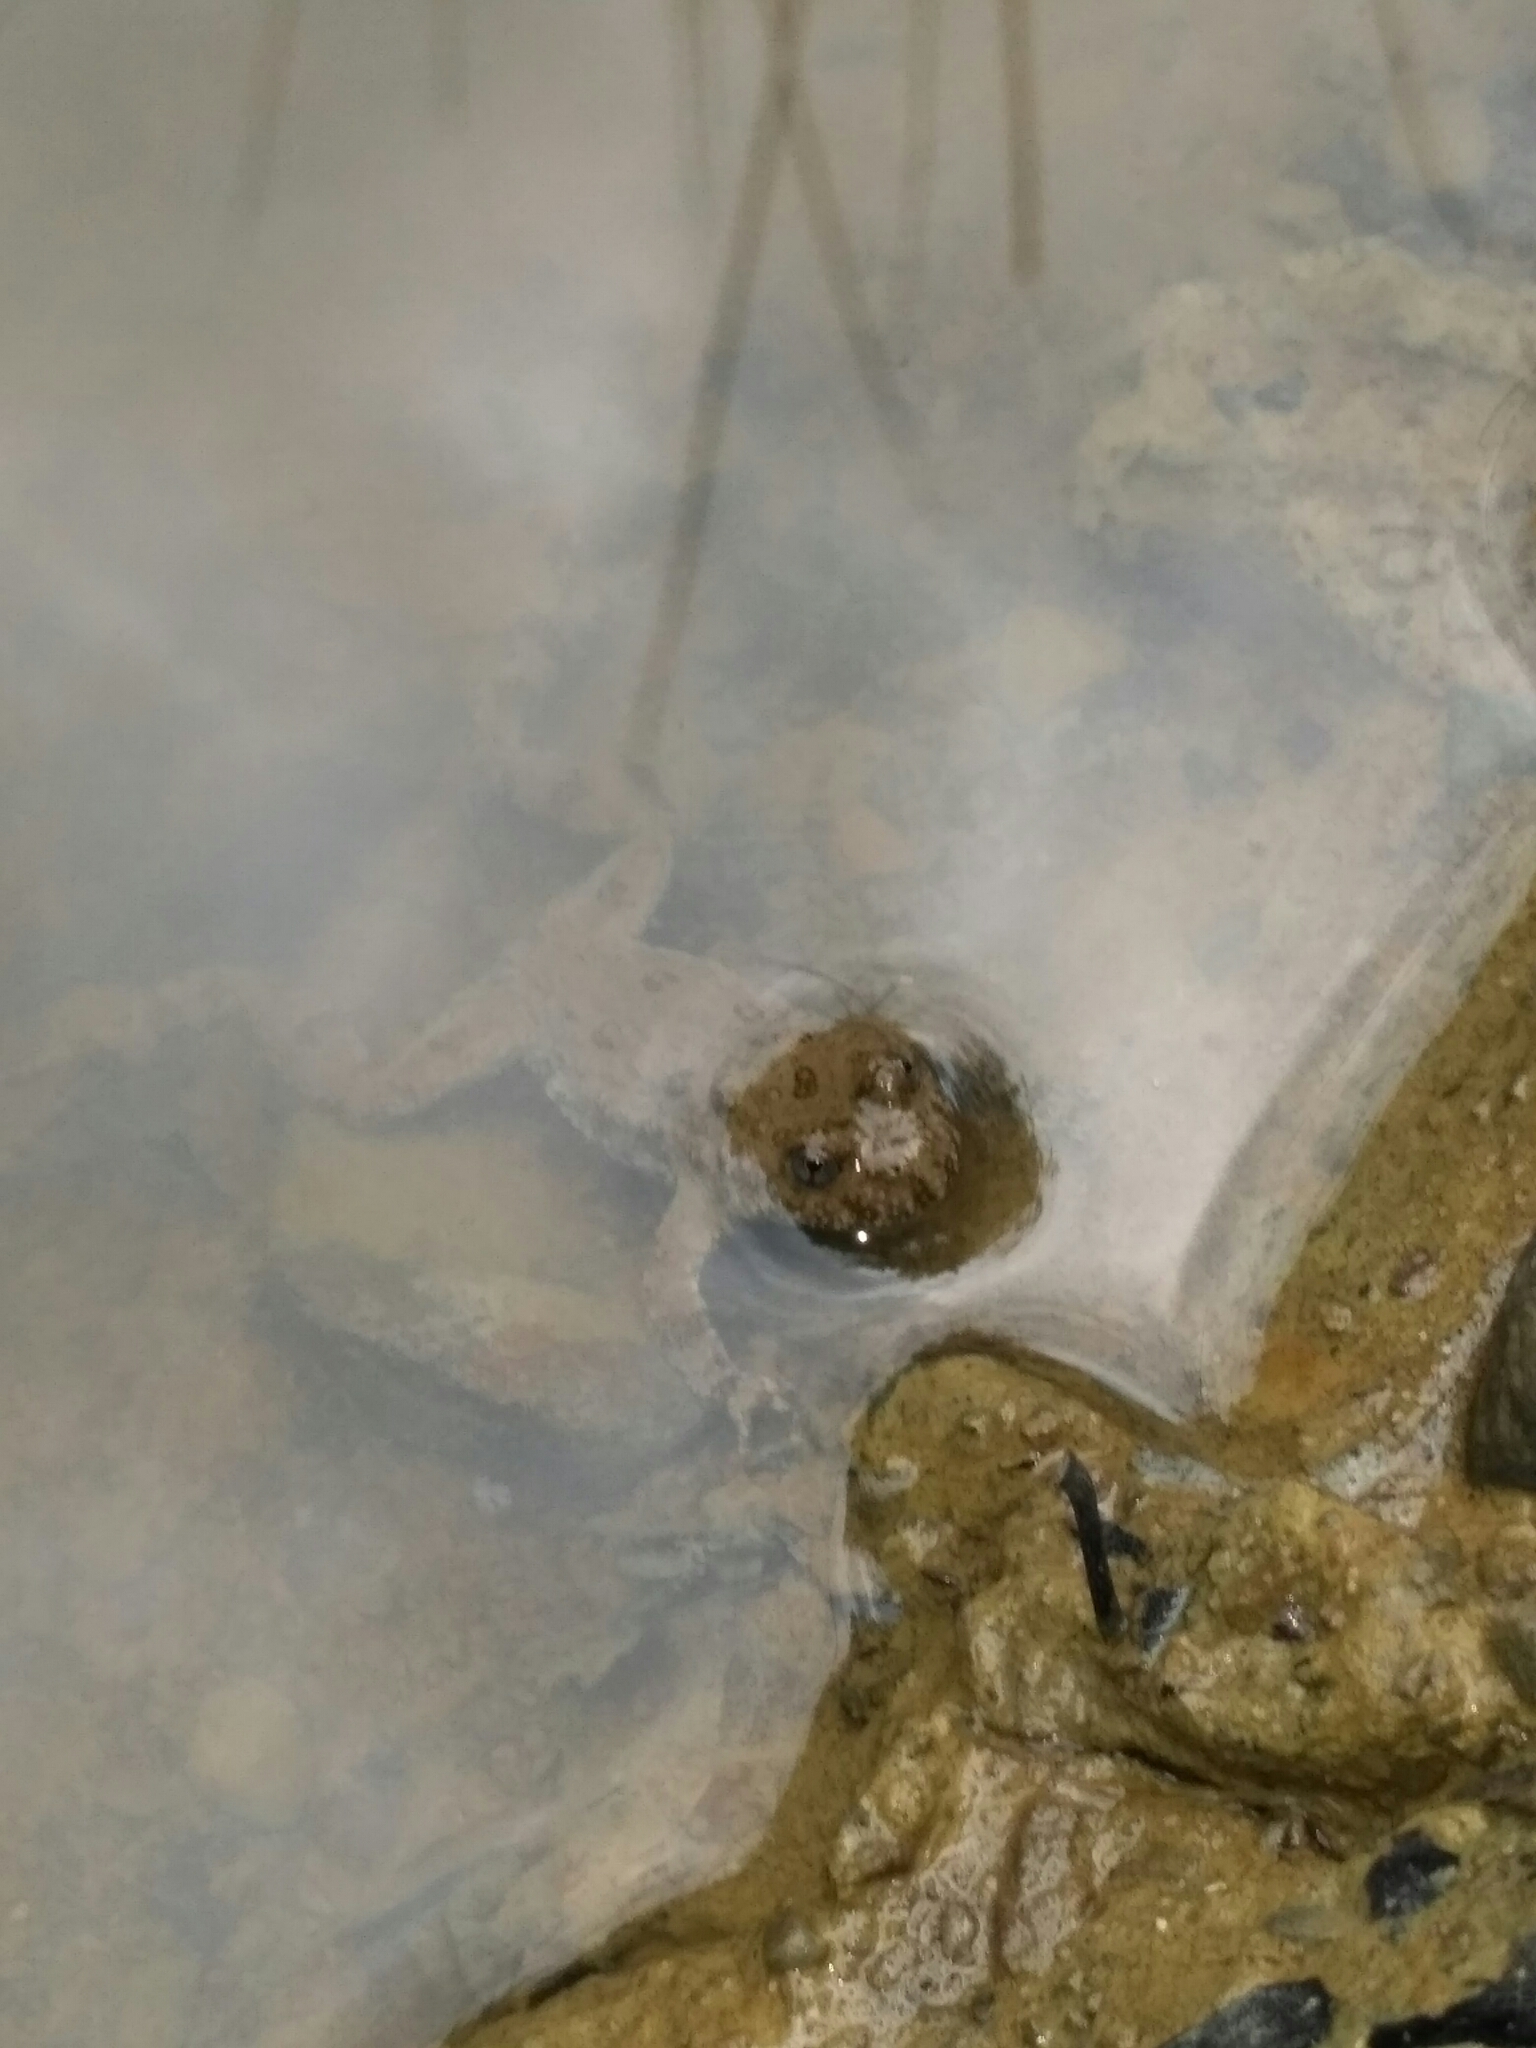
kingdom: Animalia
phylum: Chordata
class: Amphibia
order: Anura
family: Bombinatoridae
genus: Bombina
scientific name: Bombina variegata
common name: Yellow-bellied toad
